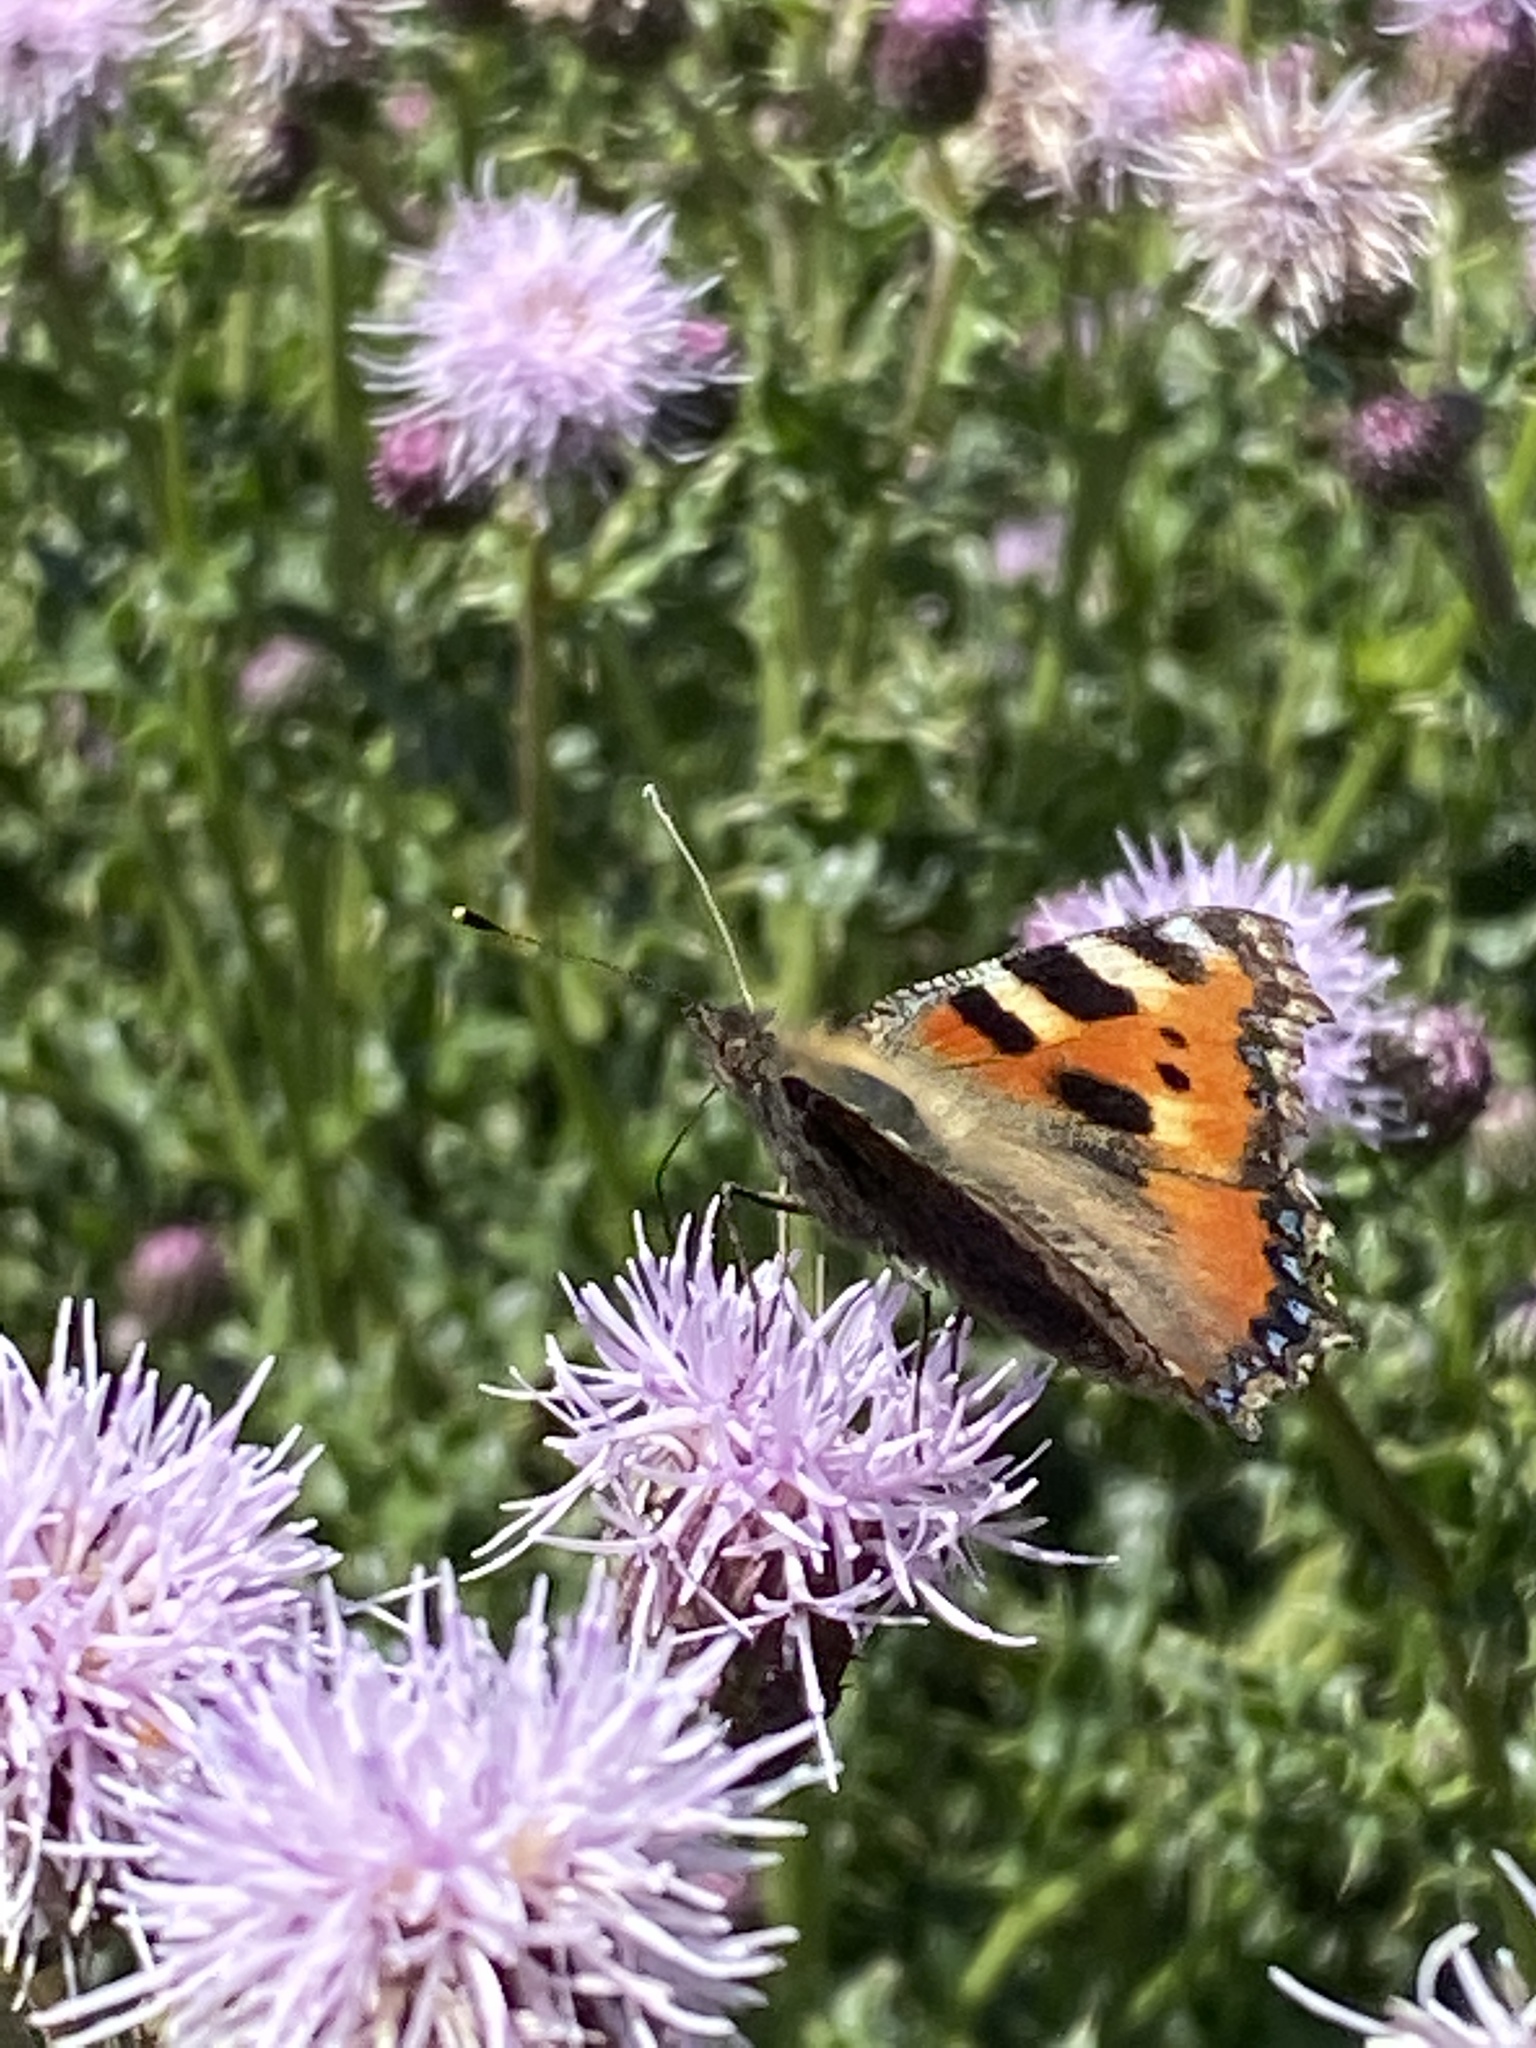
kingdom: Animalia
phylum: Arthropoda
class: Insecta
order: Lepidoptera
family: Nymphalidae
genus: Aglais
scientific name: Aglais urticae
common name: Small tortoiseshell
